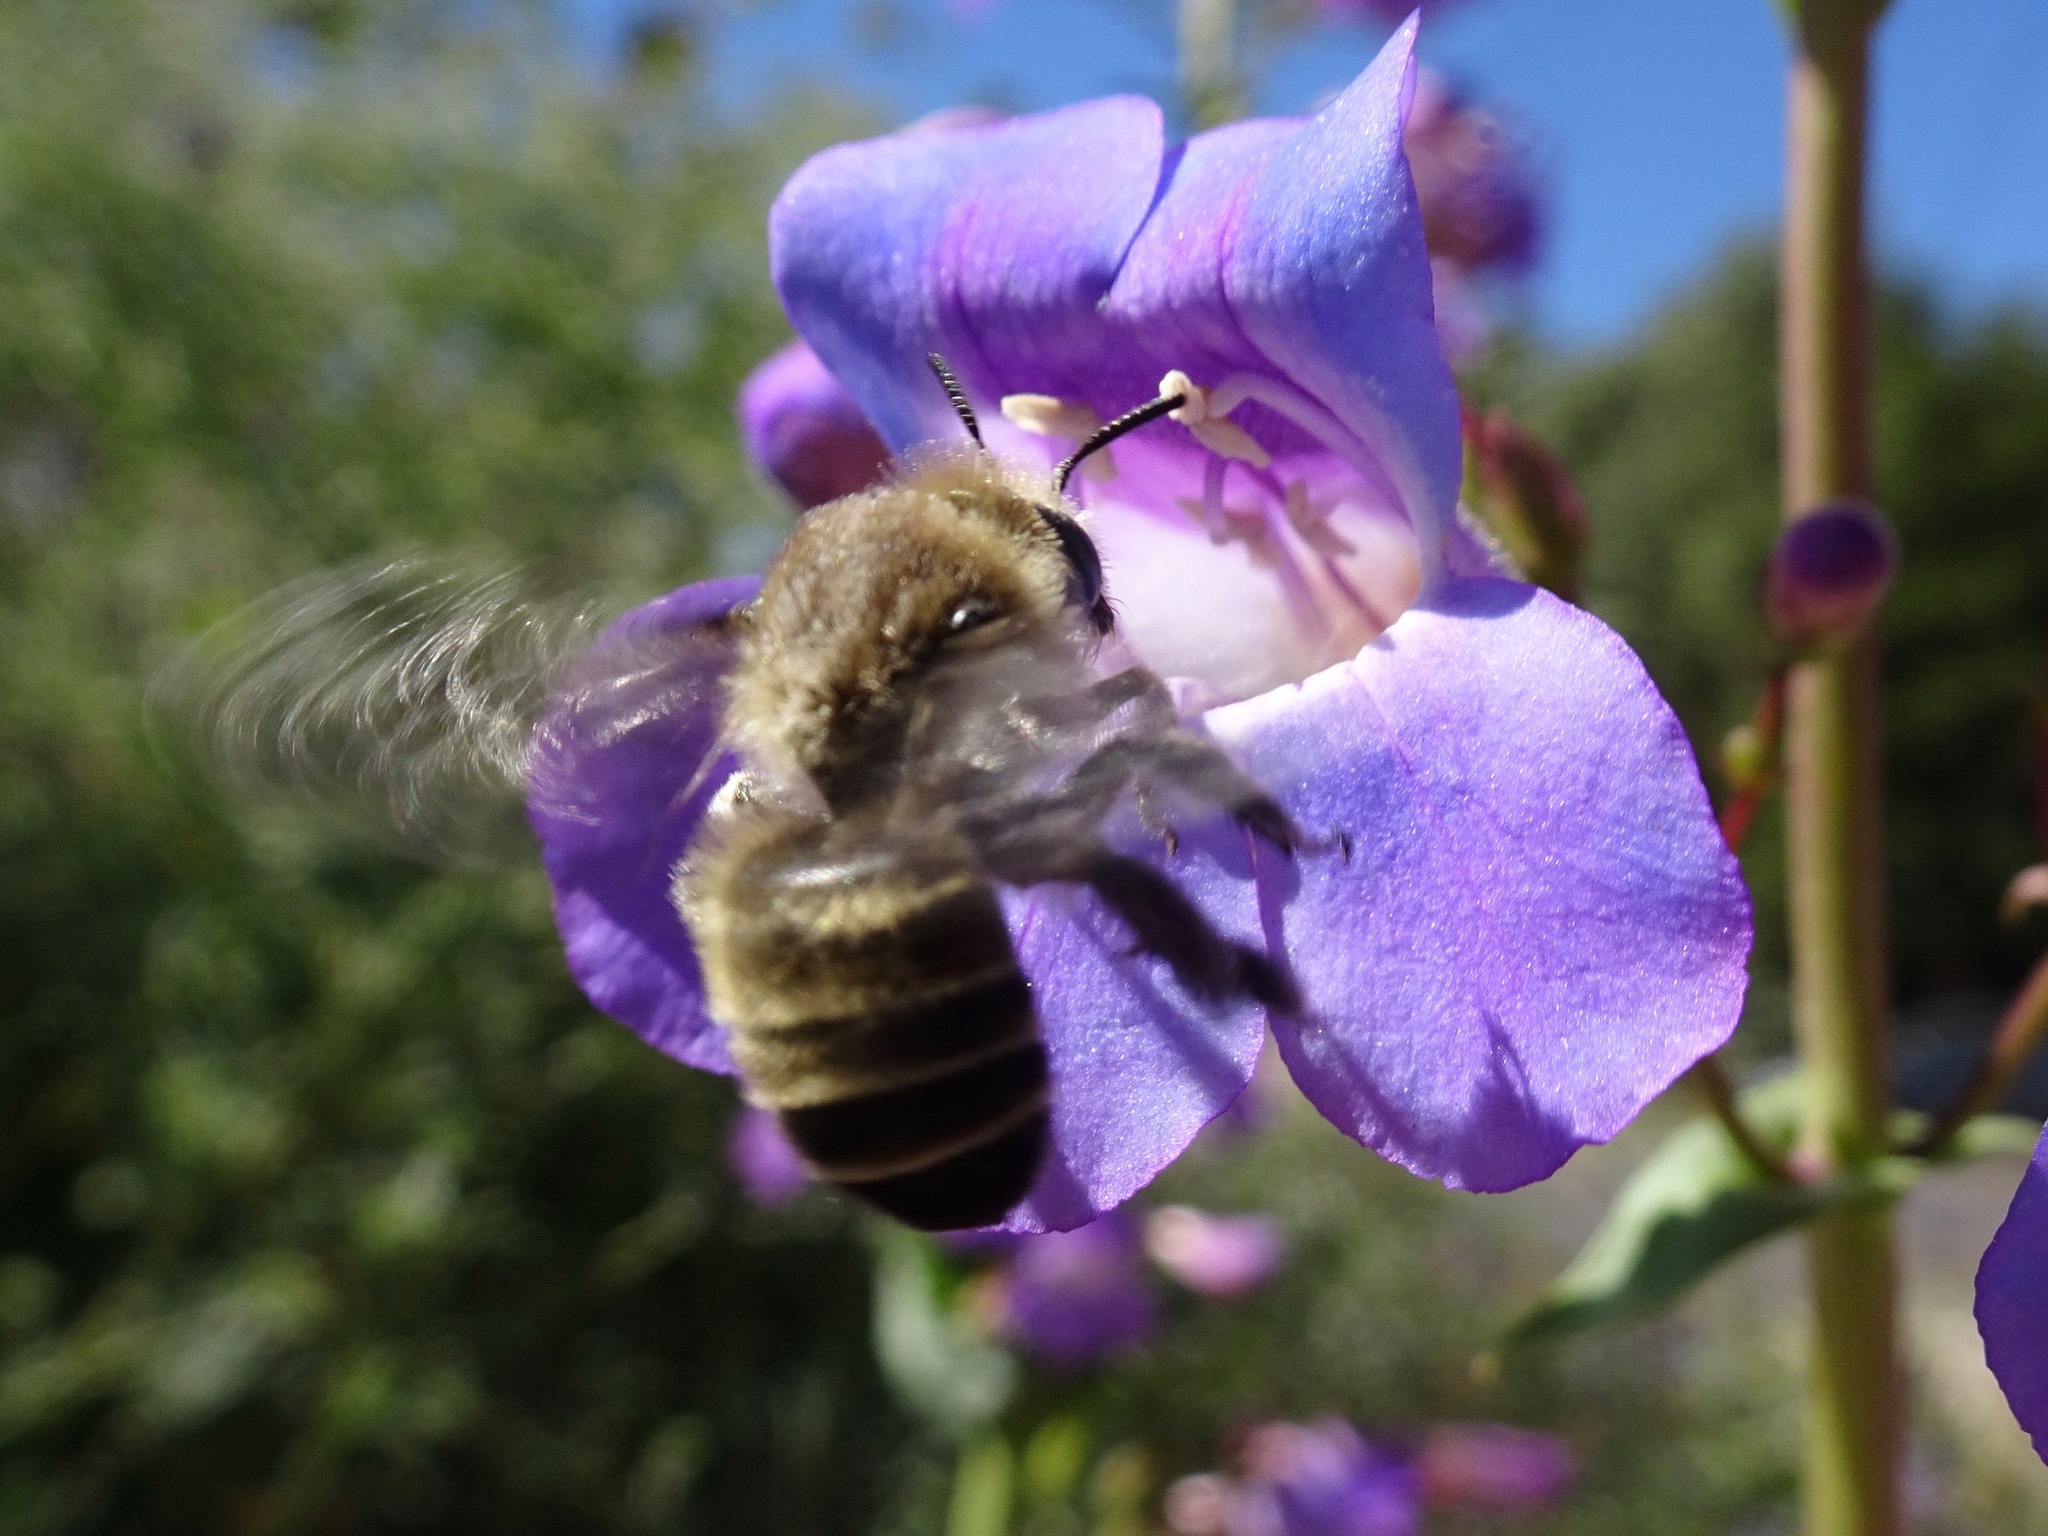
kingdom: Animalia
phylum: Arthropoda
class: Insecta
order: Hymenoptera
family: Apidae
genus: Diadasia
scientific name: Diadasia bituberculata
